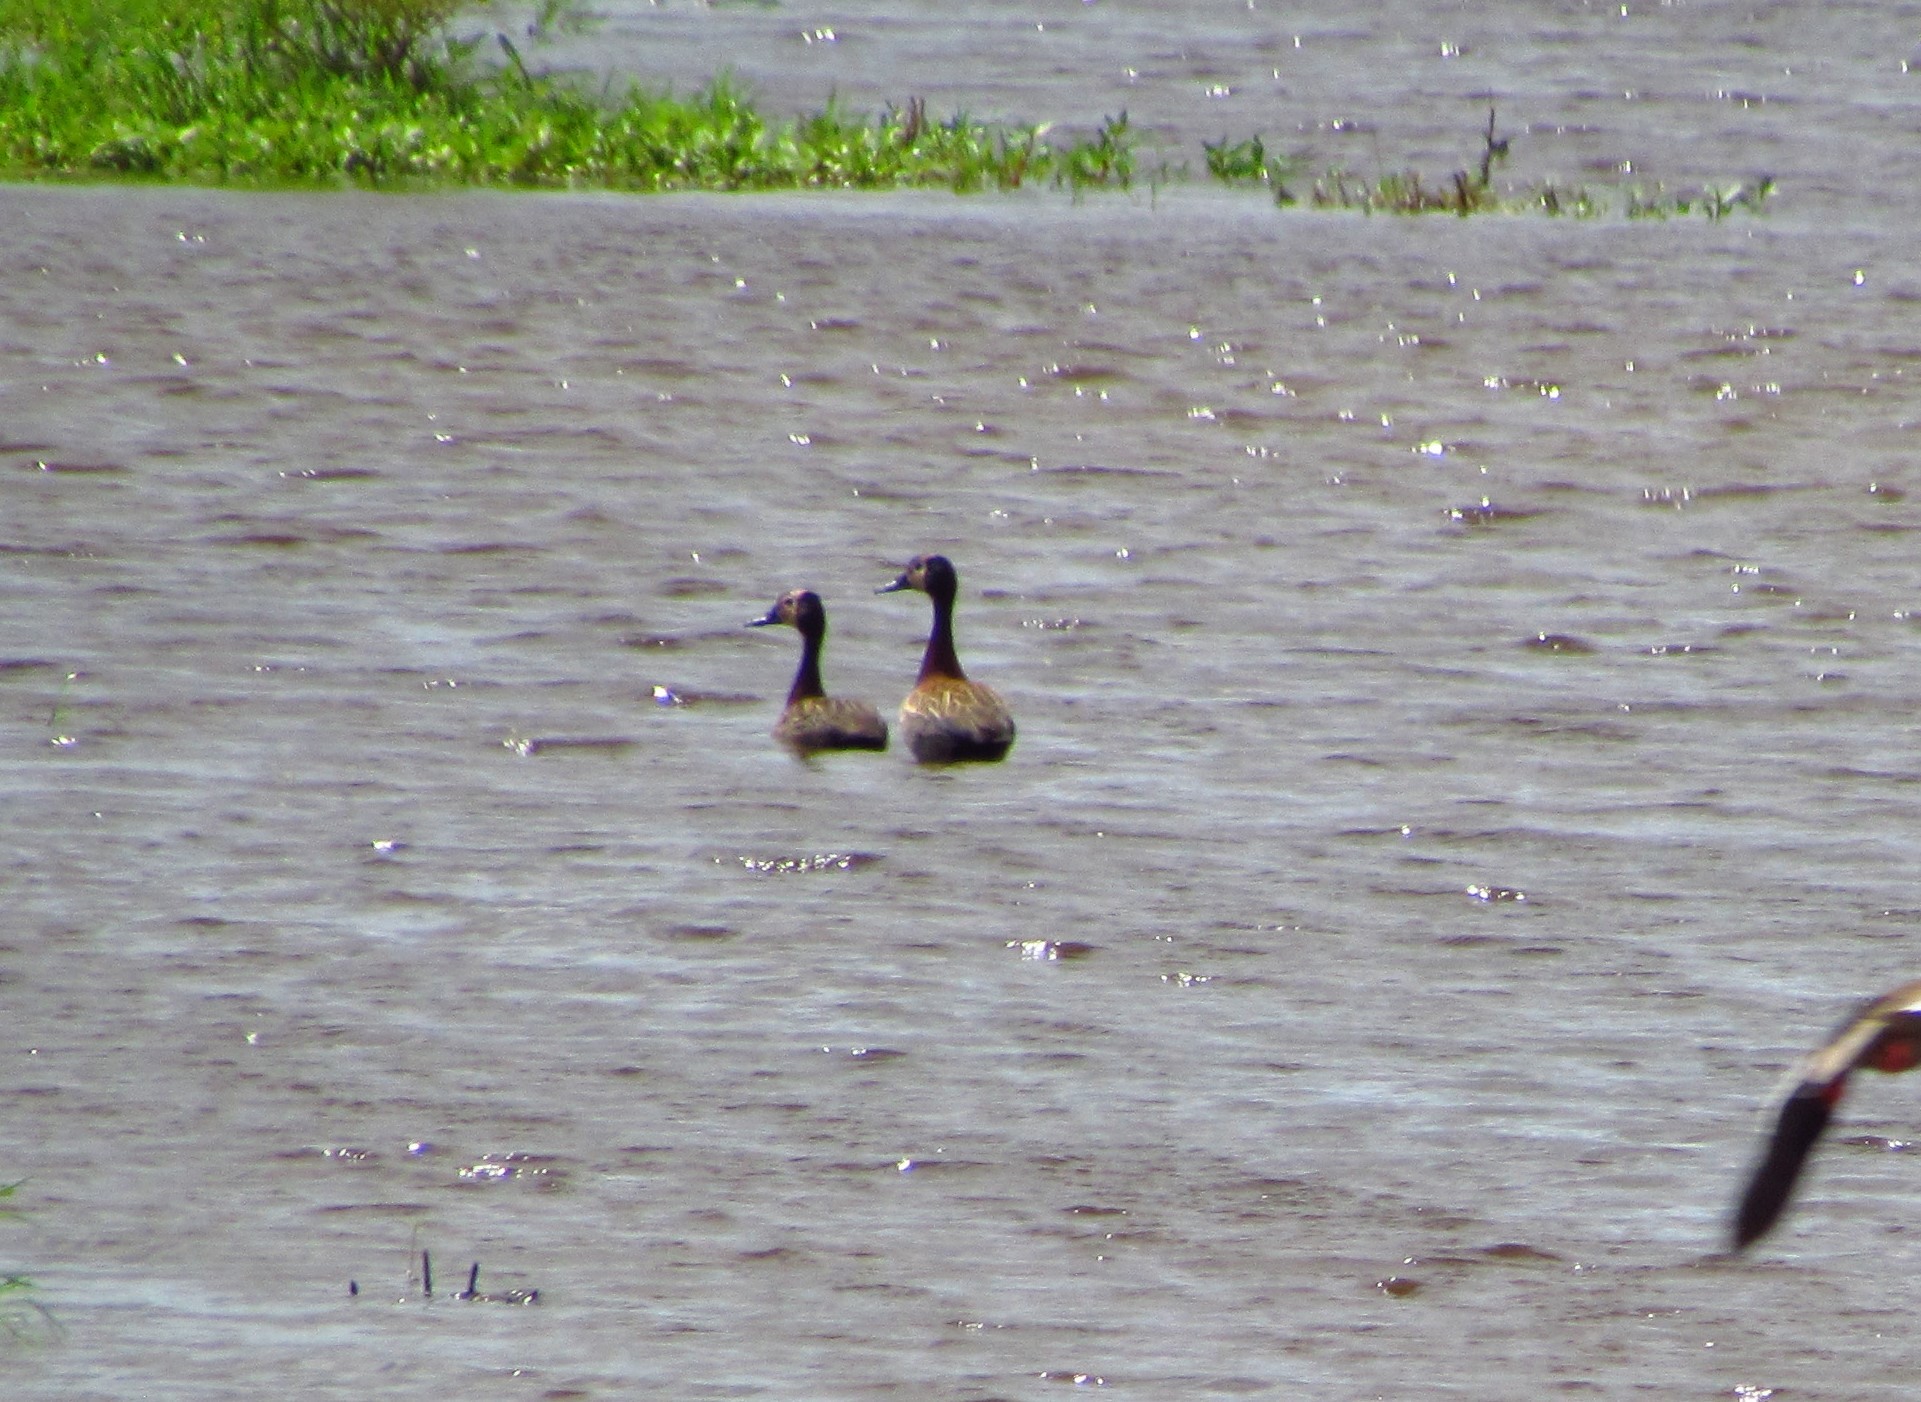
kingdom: Animalia
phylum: Chordata
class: Aves
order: Anseriformes
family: Anatidae
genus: Dendrocygna
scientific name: Dendrocygna viduata
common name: White-faced whistling duck
